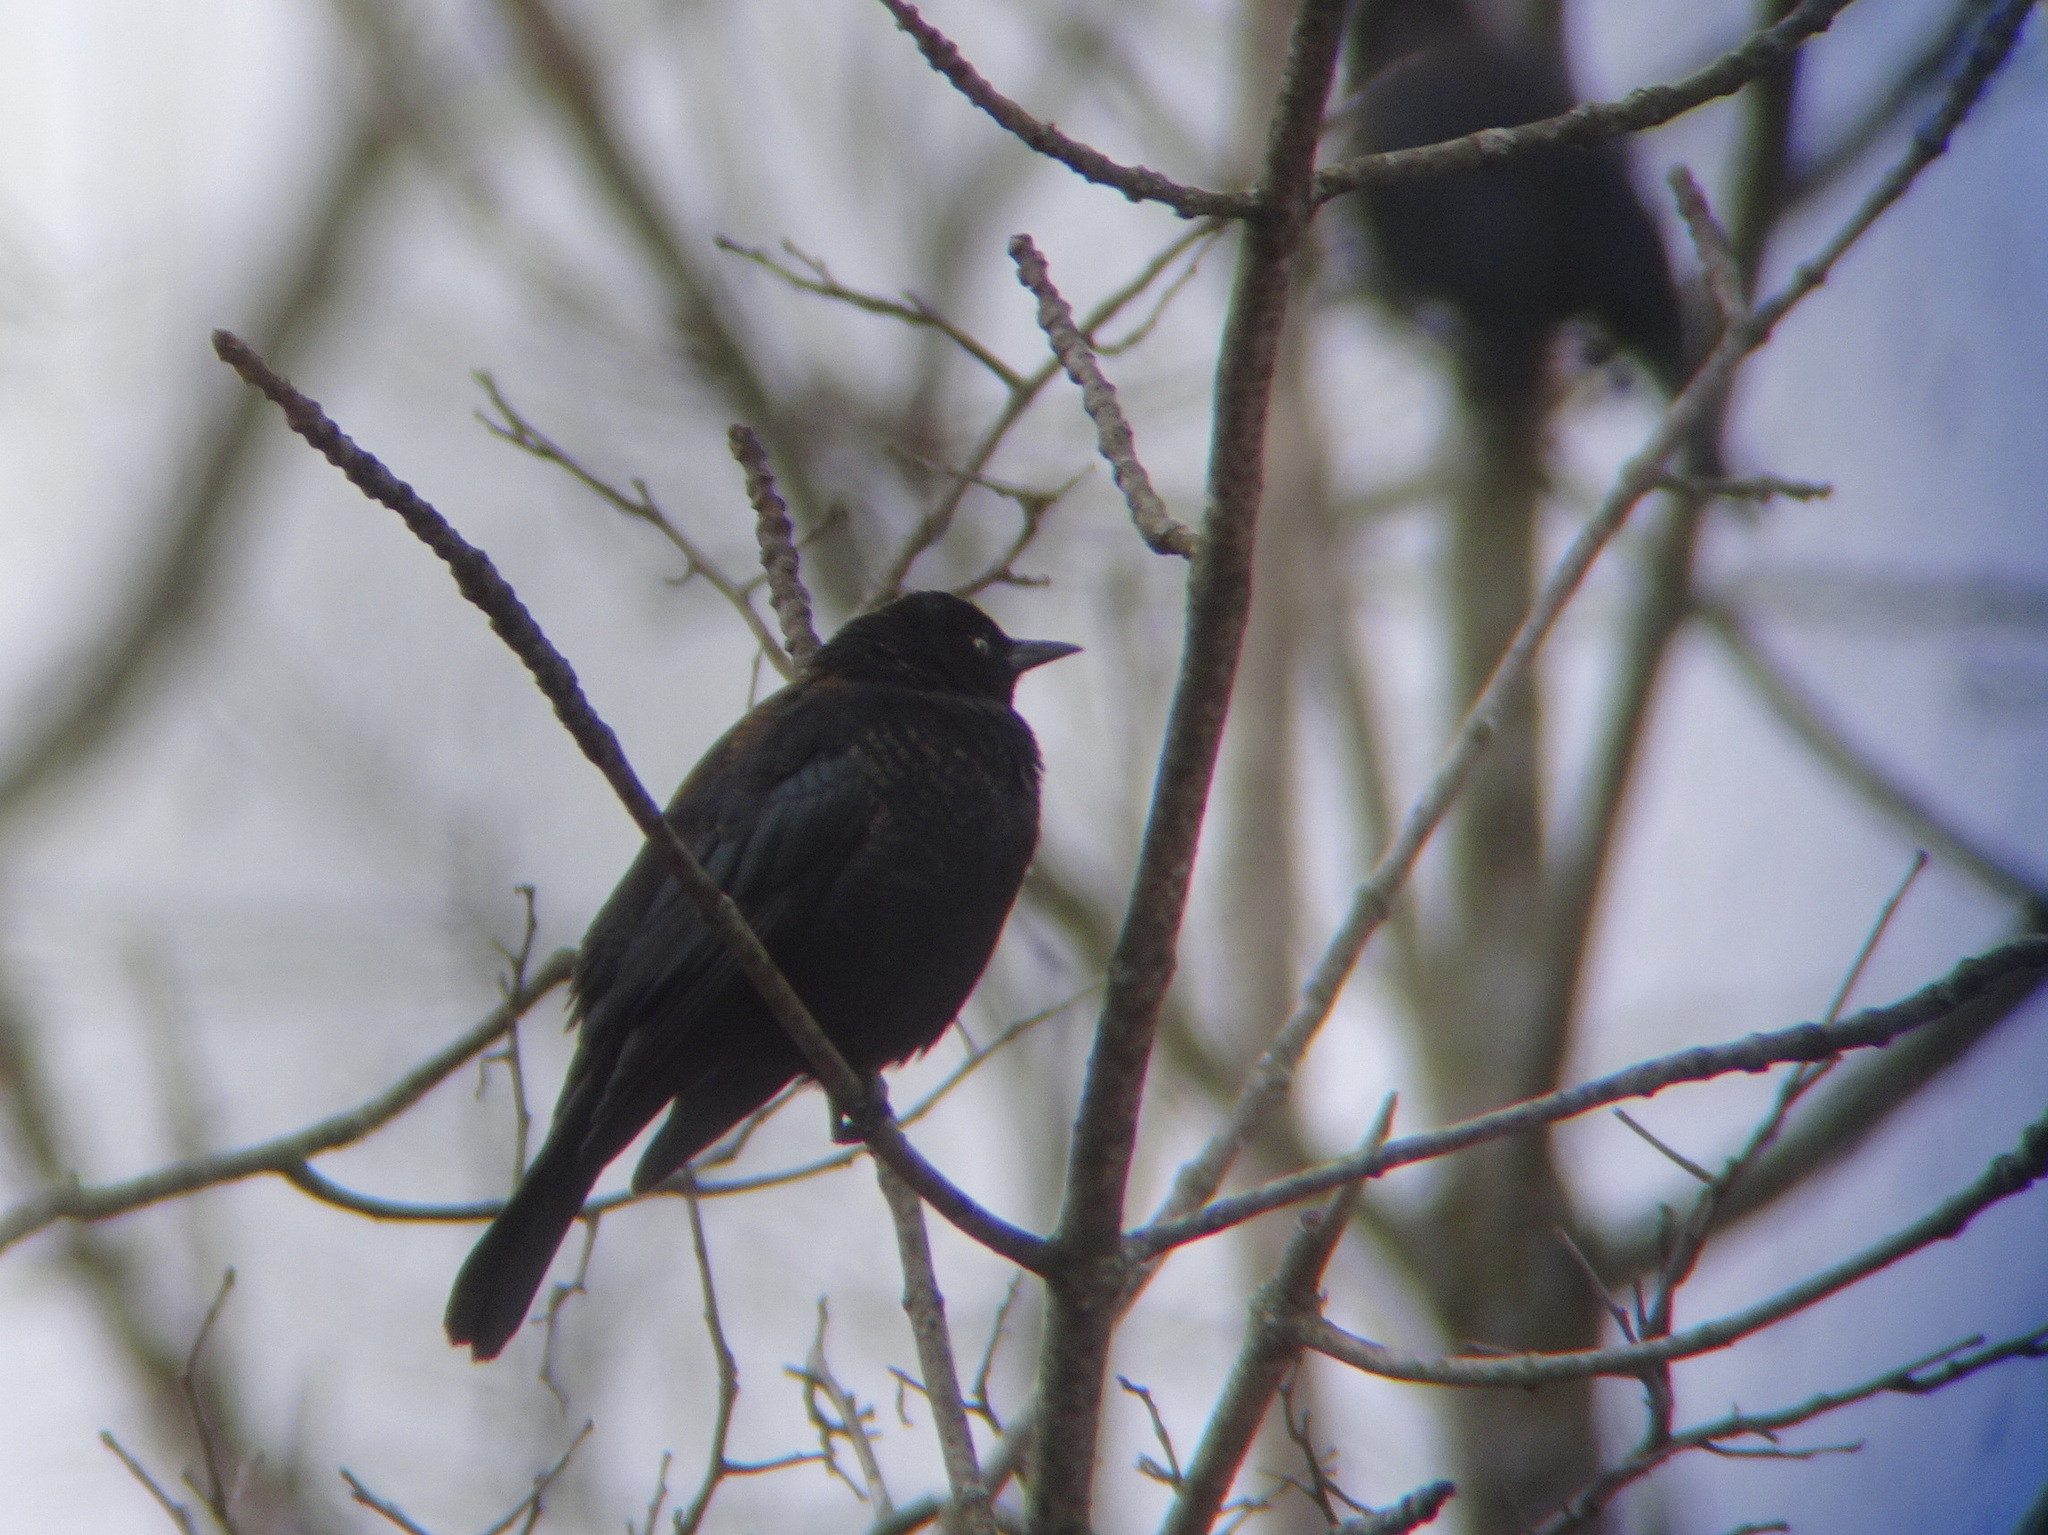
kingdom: Animalia
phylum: Chordata
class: Aves
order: Passeriformes
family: Icteridae
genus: Euphagus
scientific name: Euphagus carolinus
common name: Rusty blackbird
